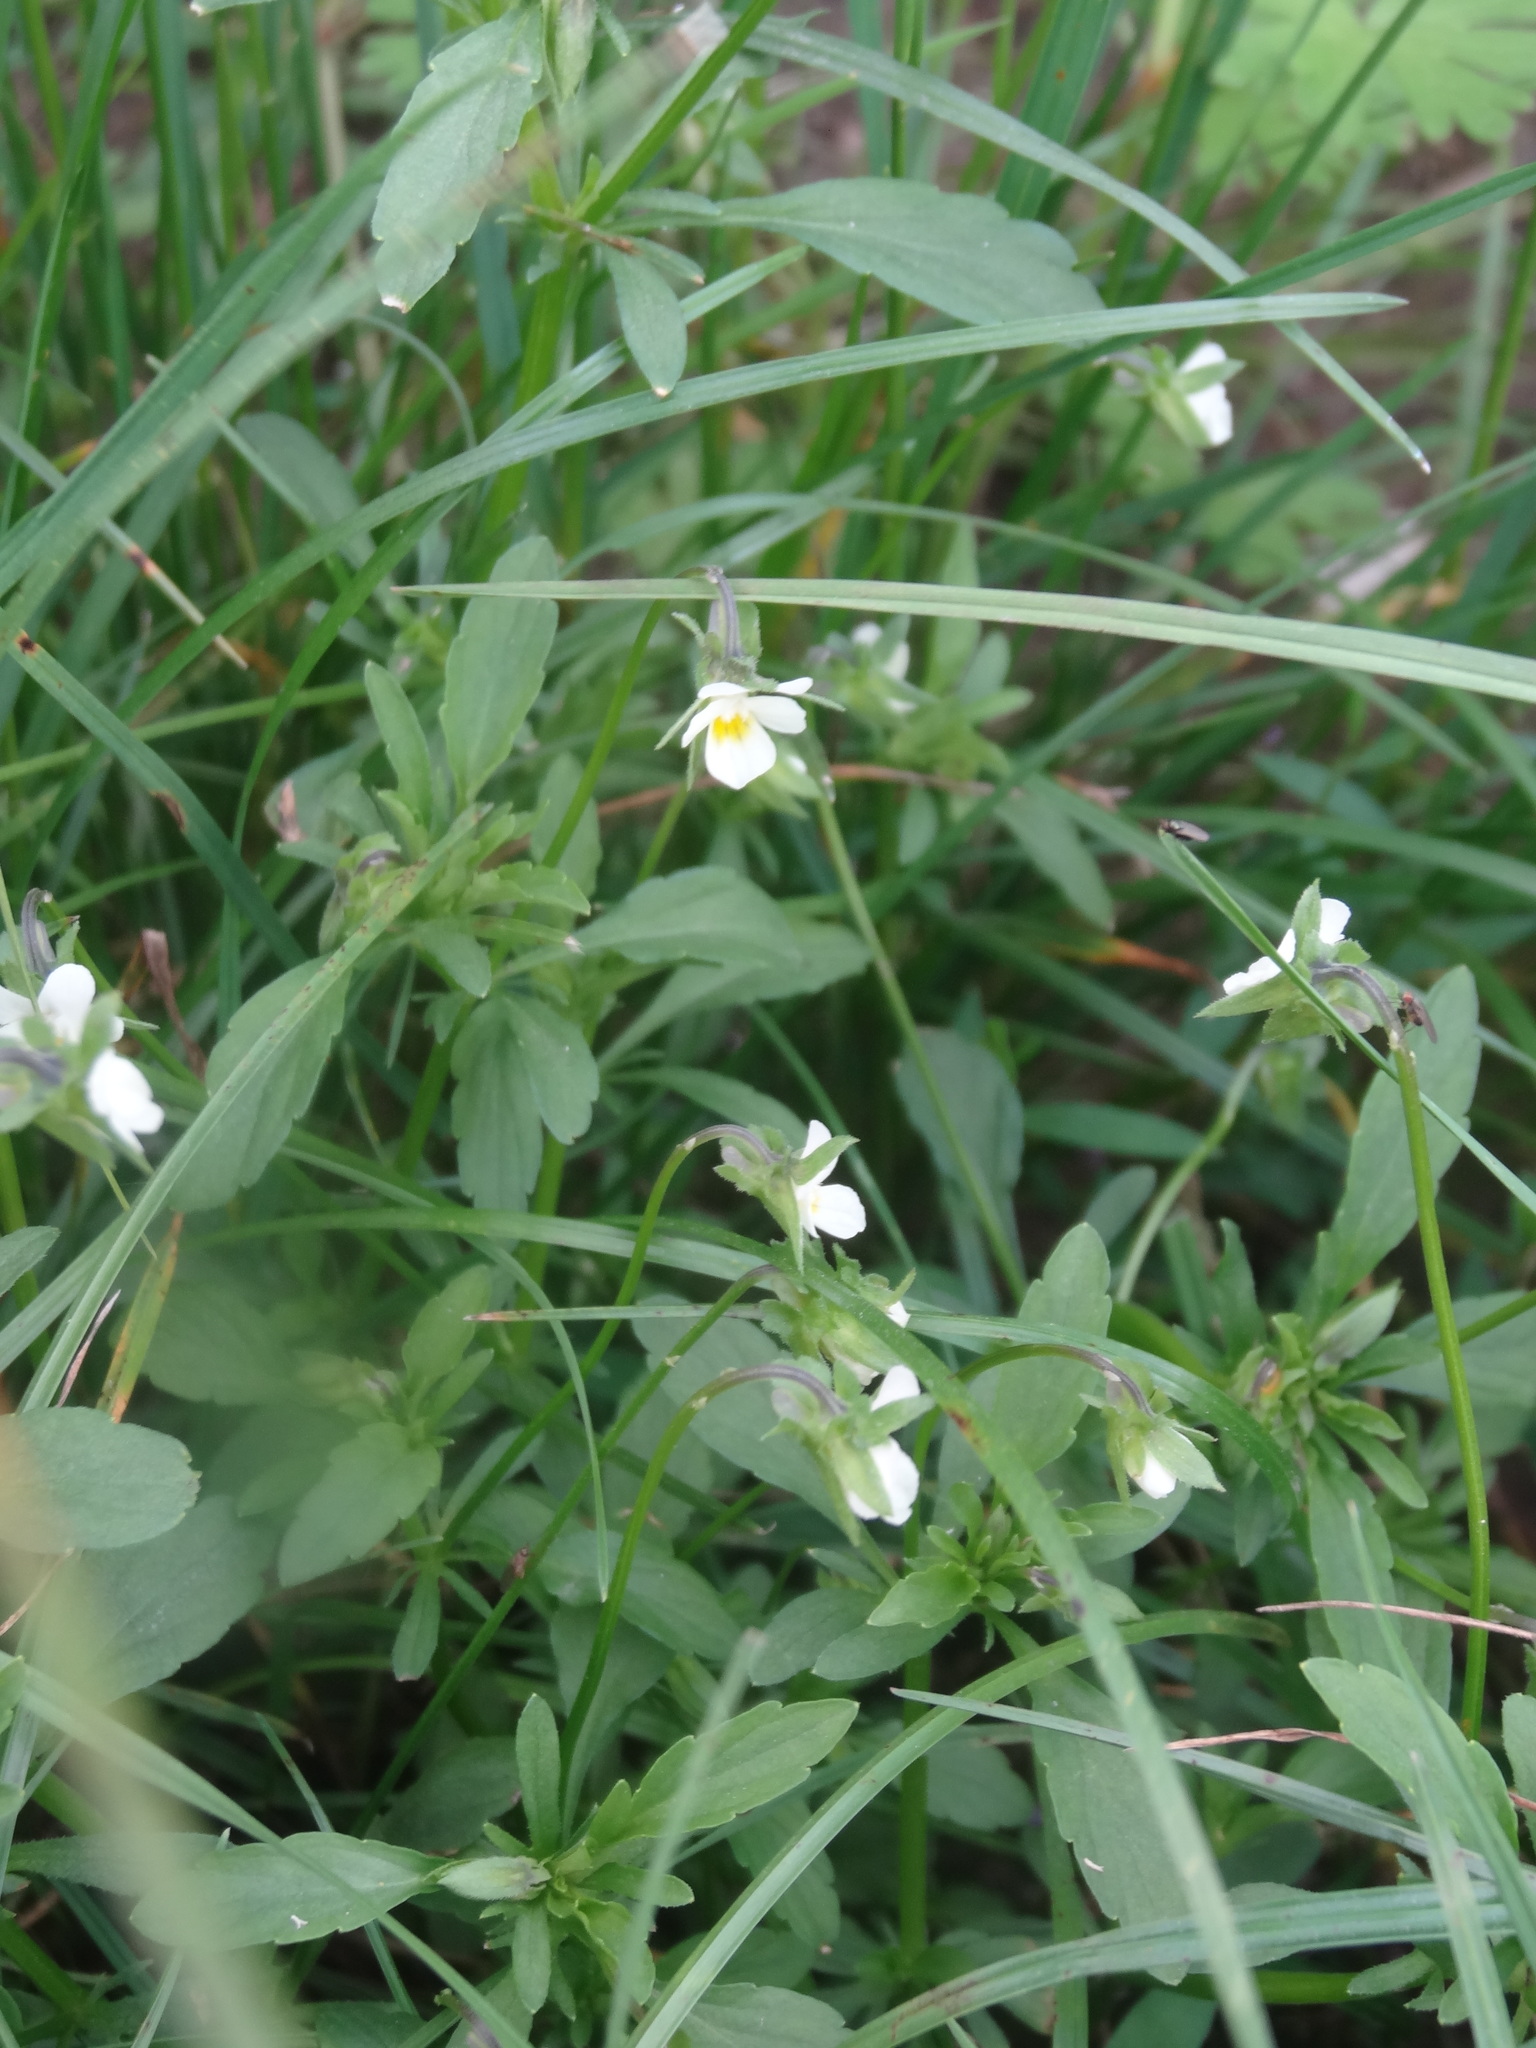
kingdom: Plantae
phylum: Tracheophyta
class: Magnoliopsida
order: Malpighiales
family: Violaceae
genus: Viola
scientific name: Viola arvensis
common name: Field pansy
